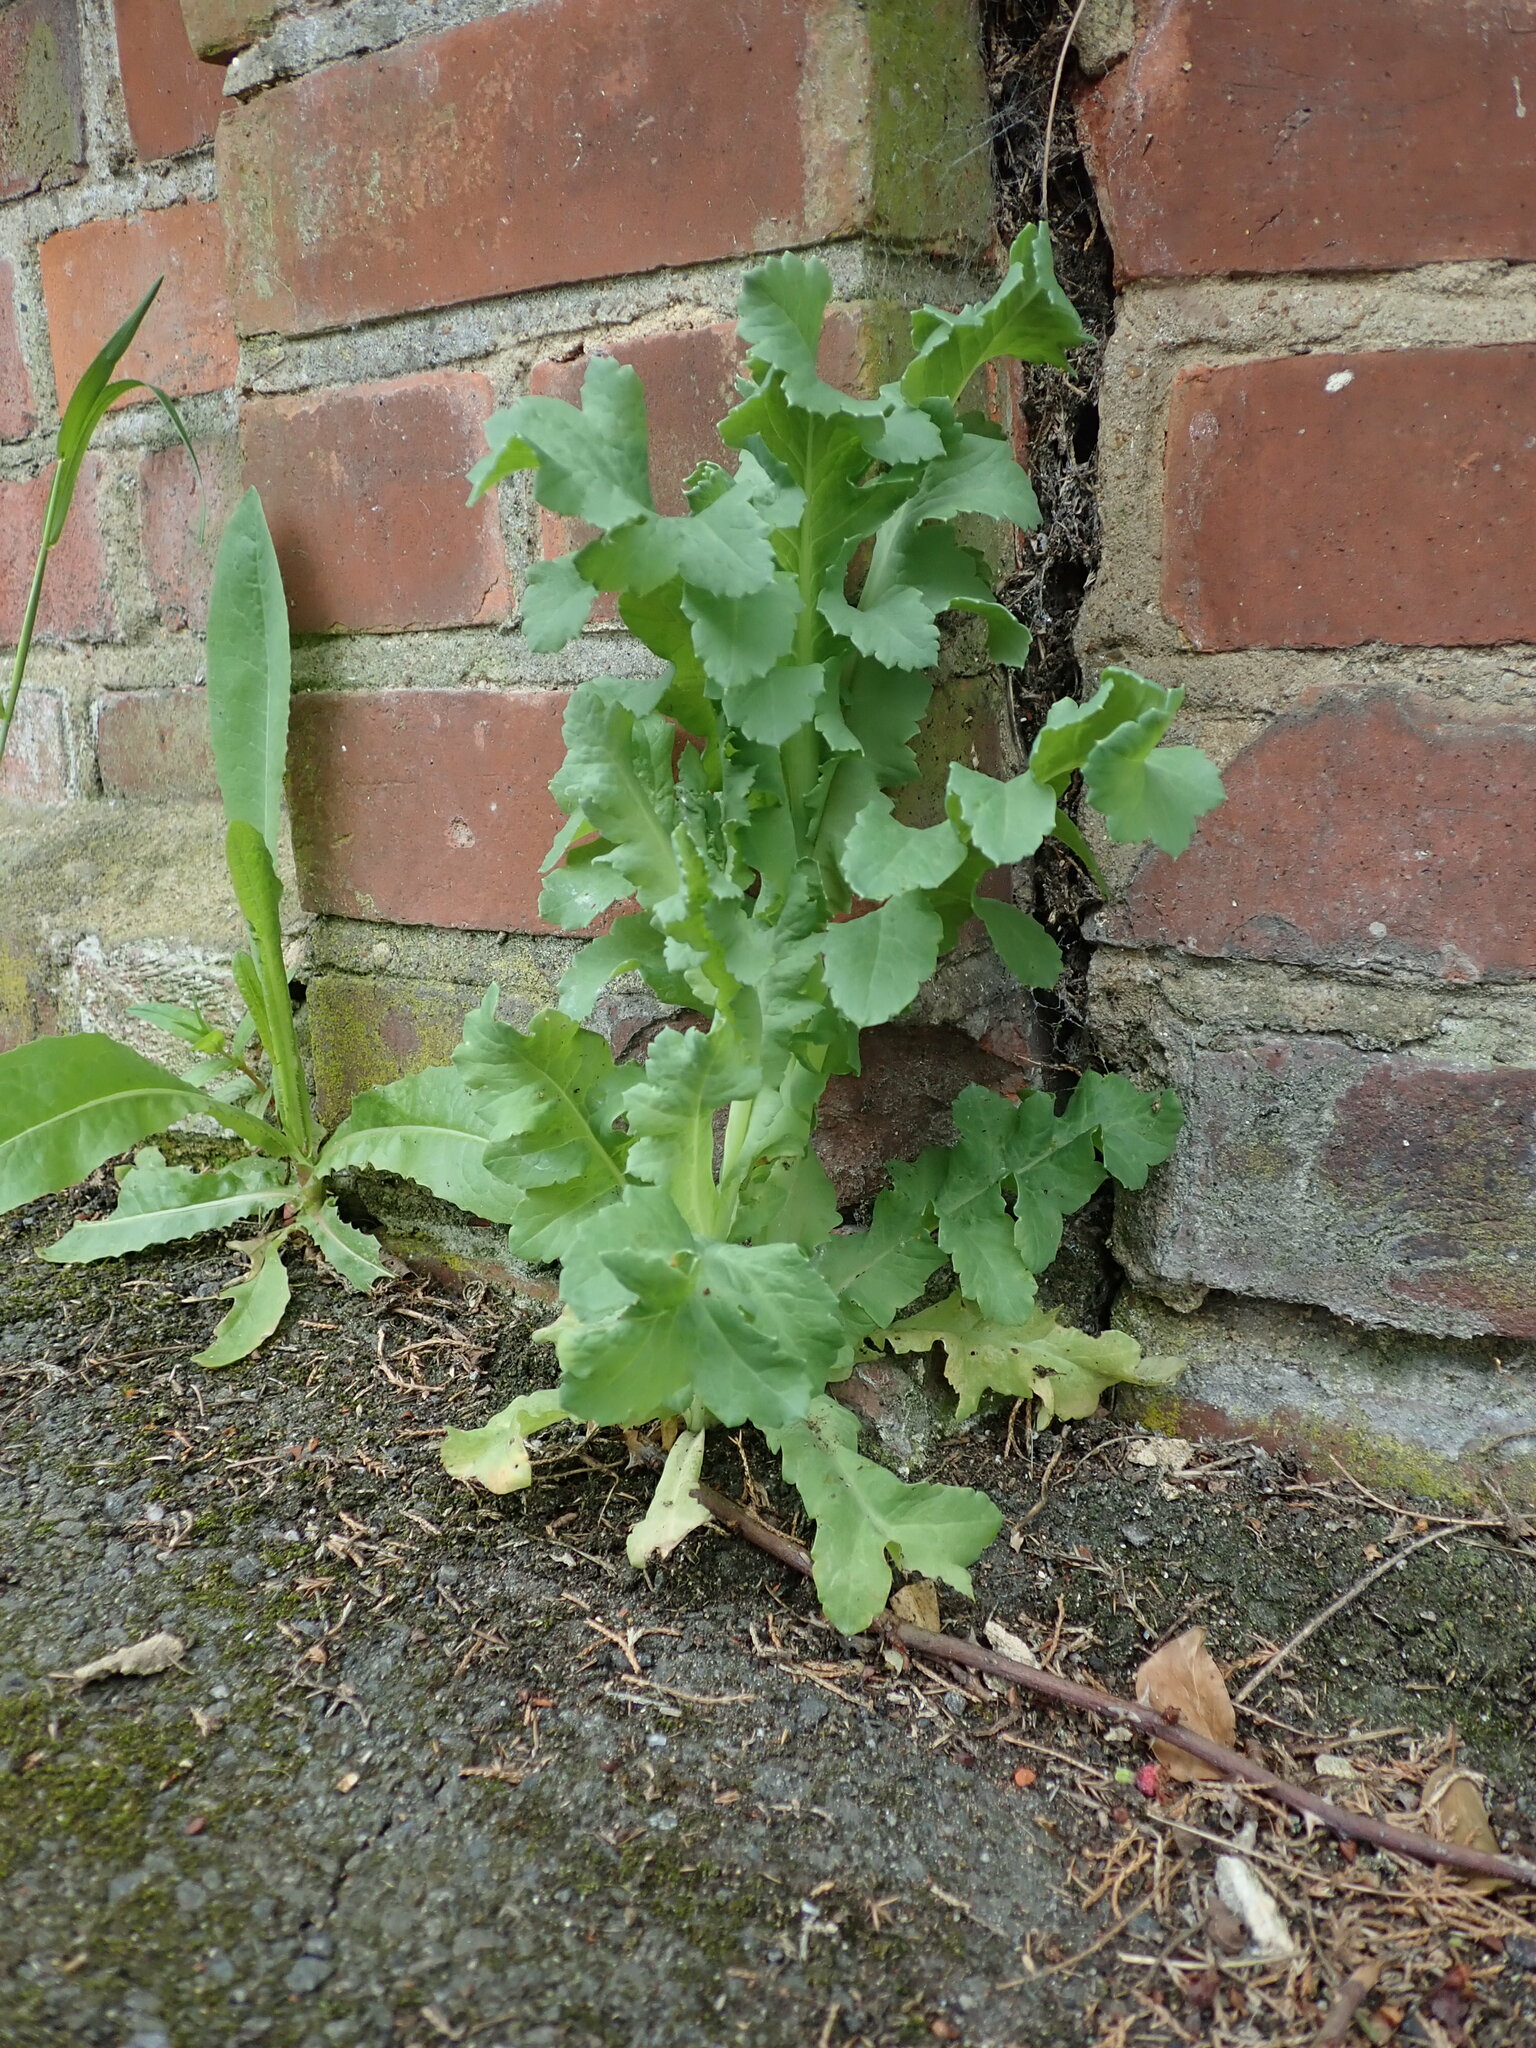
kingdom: Plantae
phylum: Tracheophyta
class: Magnoliopsida
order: Ranunculales
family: Papaveraceae
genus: Papaver
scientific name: Papaver somniferum
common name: Opium poppy
